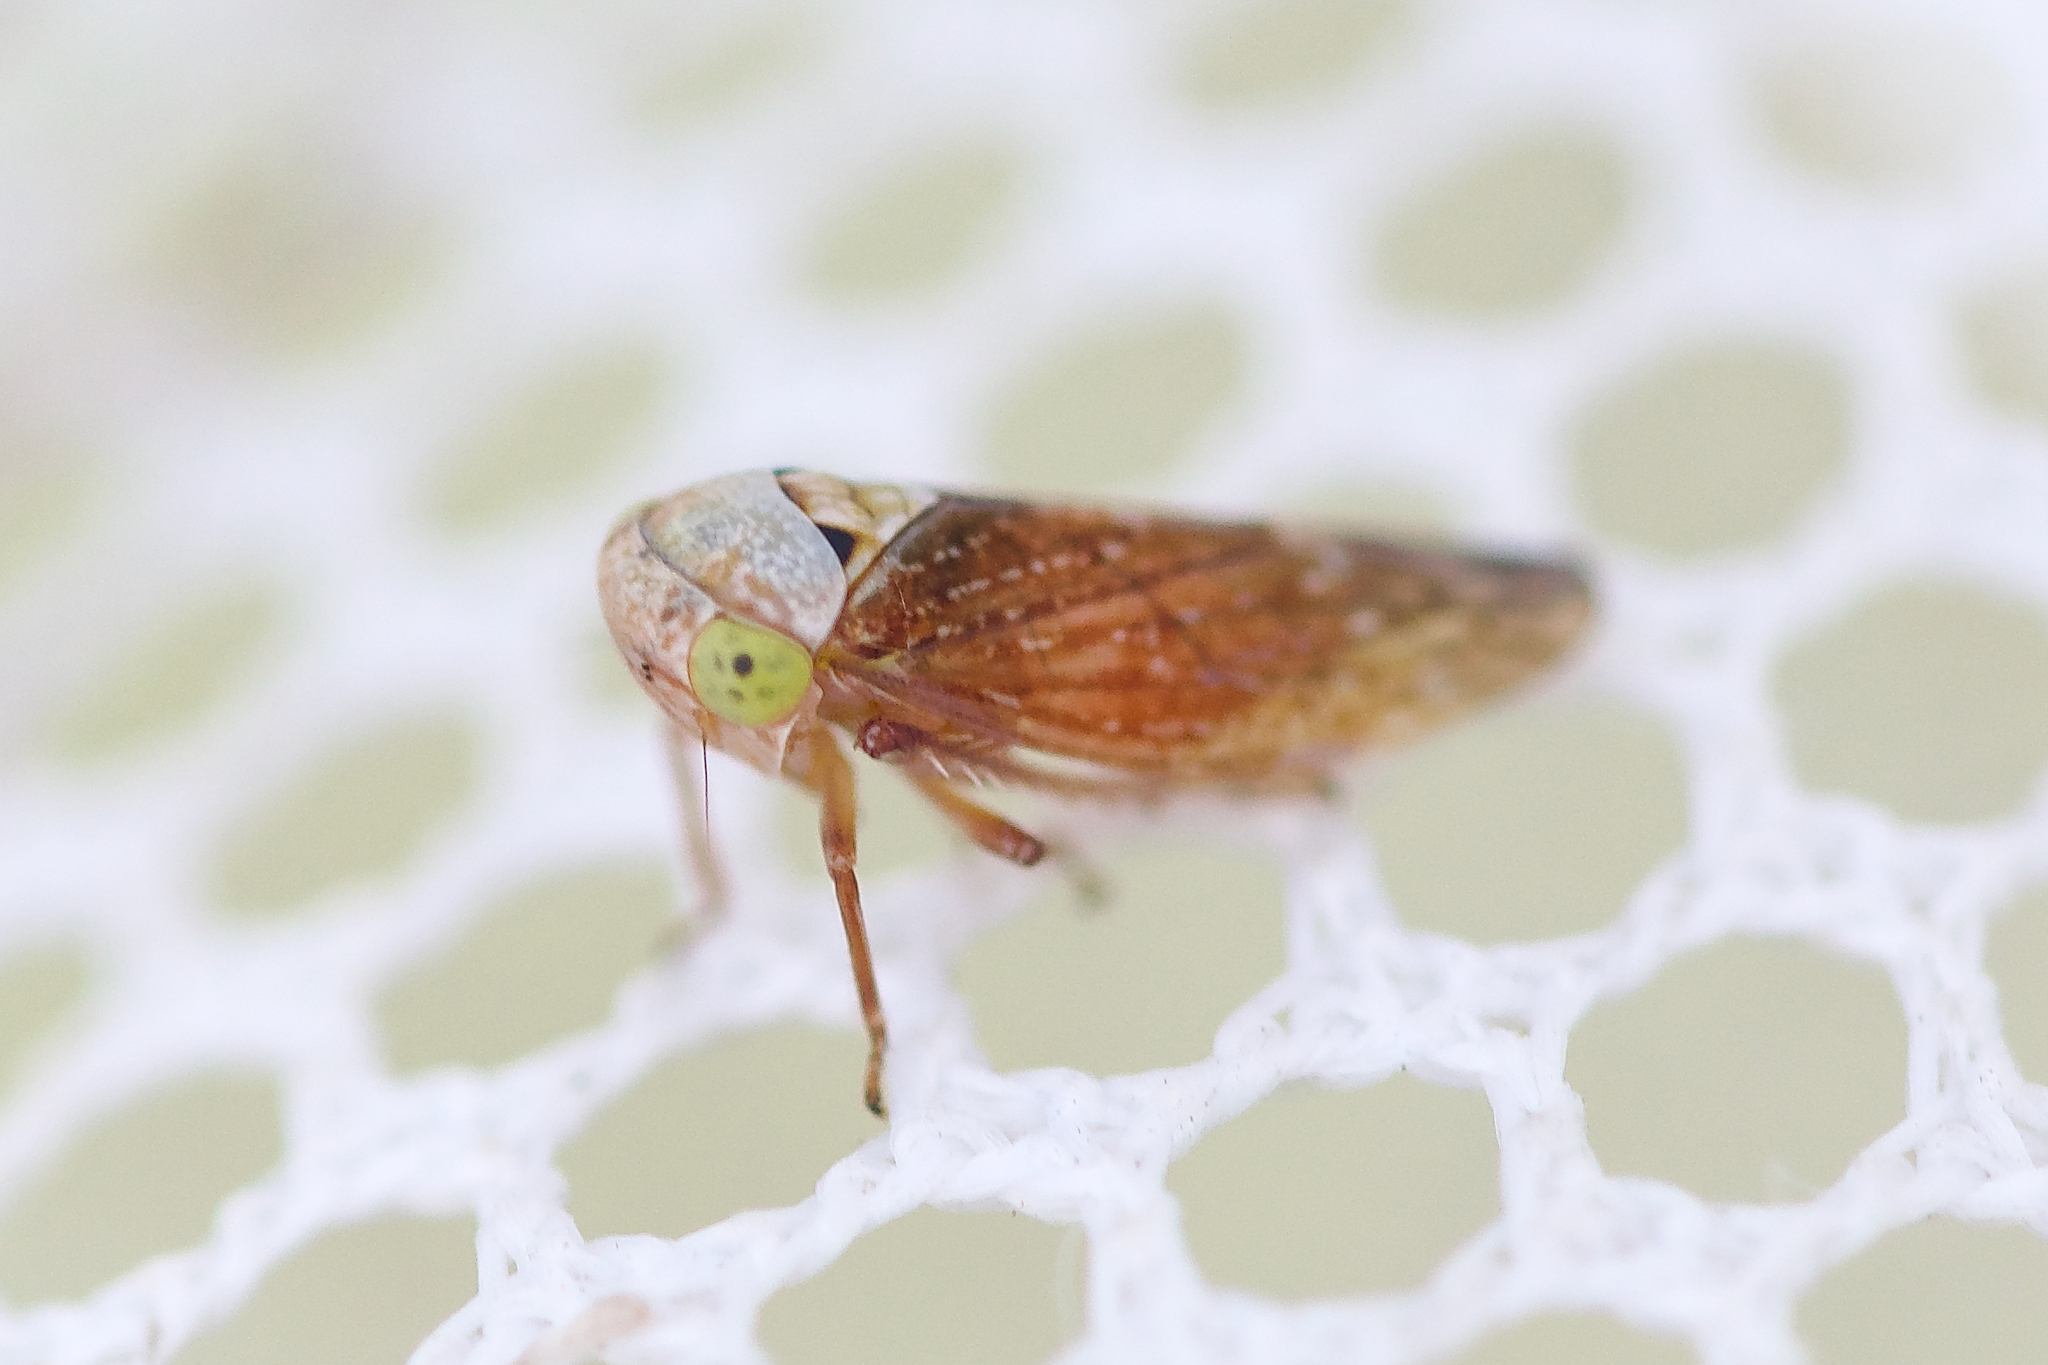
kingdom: Animalia
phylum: Arthropoda
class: Insecta
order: Hemiptera
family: Cicadellidae
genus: Acericerus
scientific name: Acericerus ribauti
